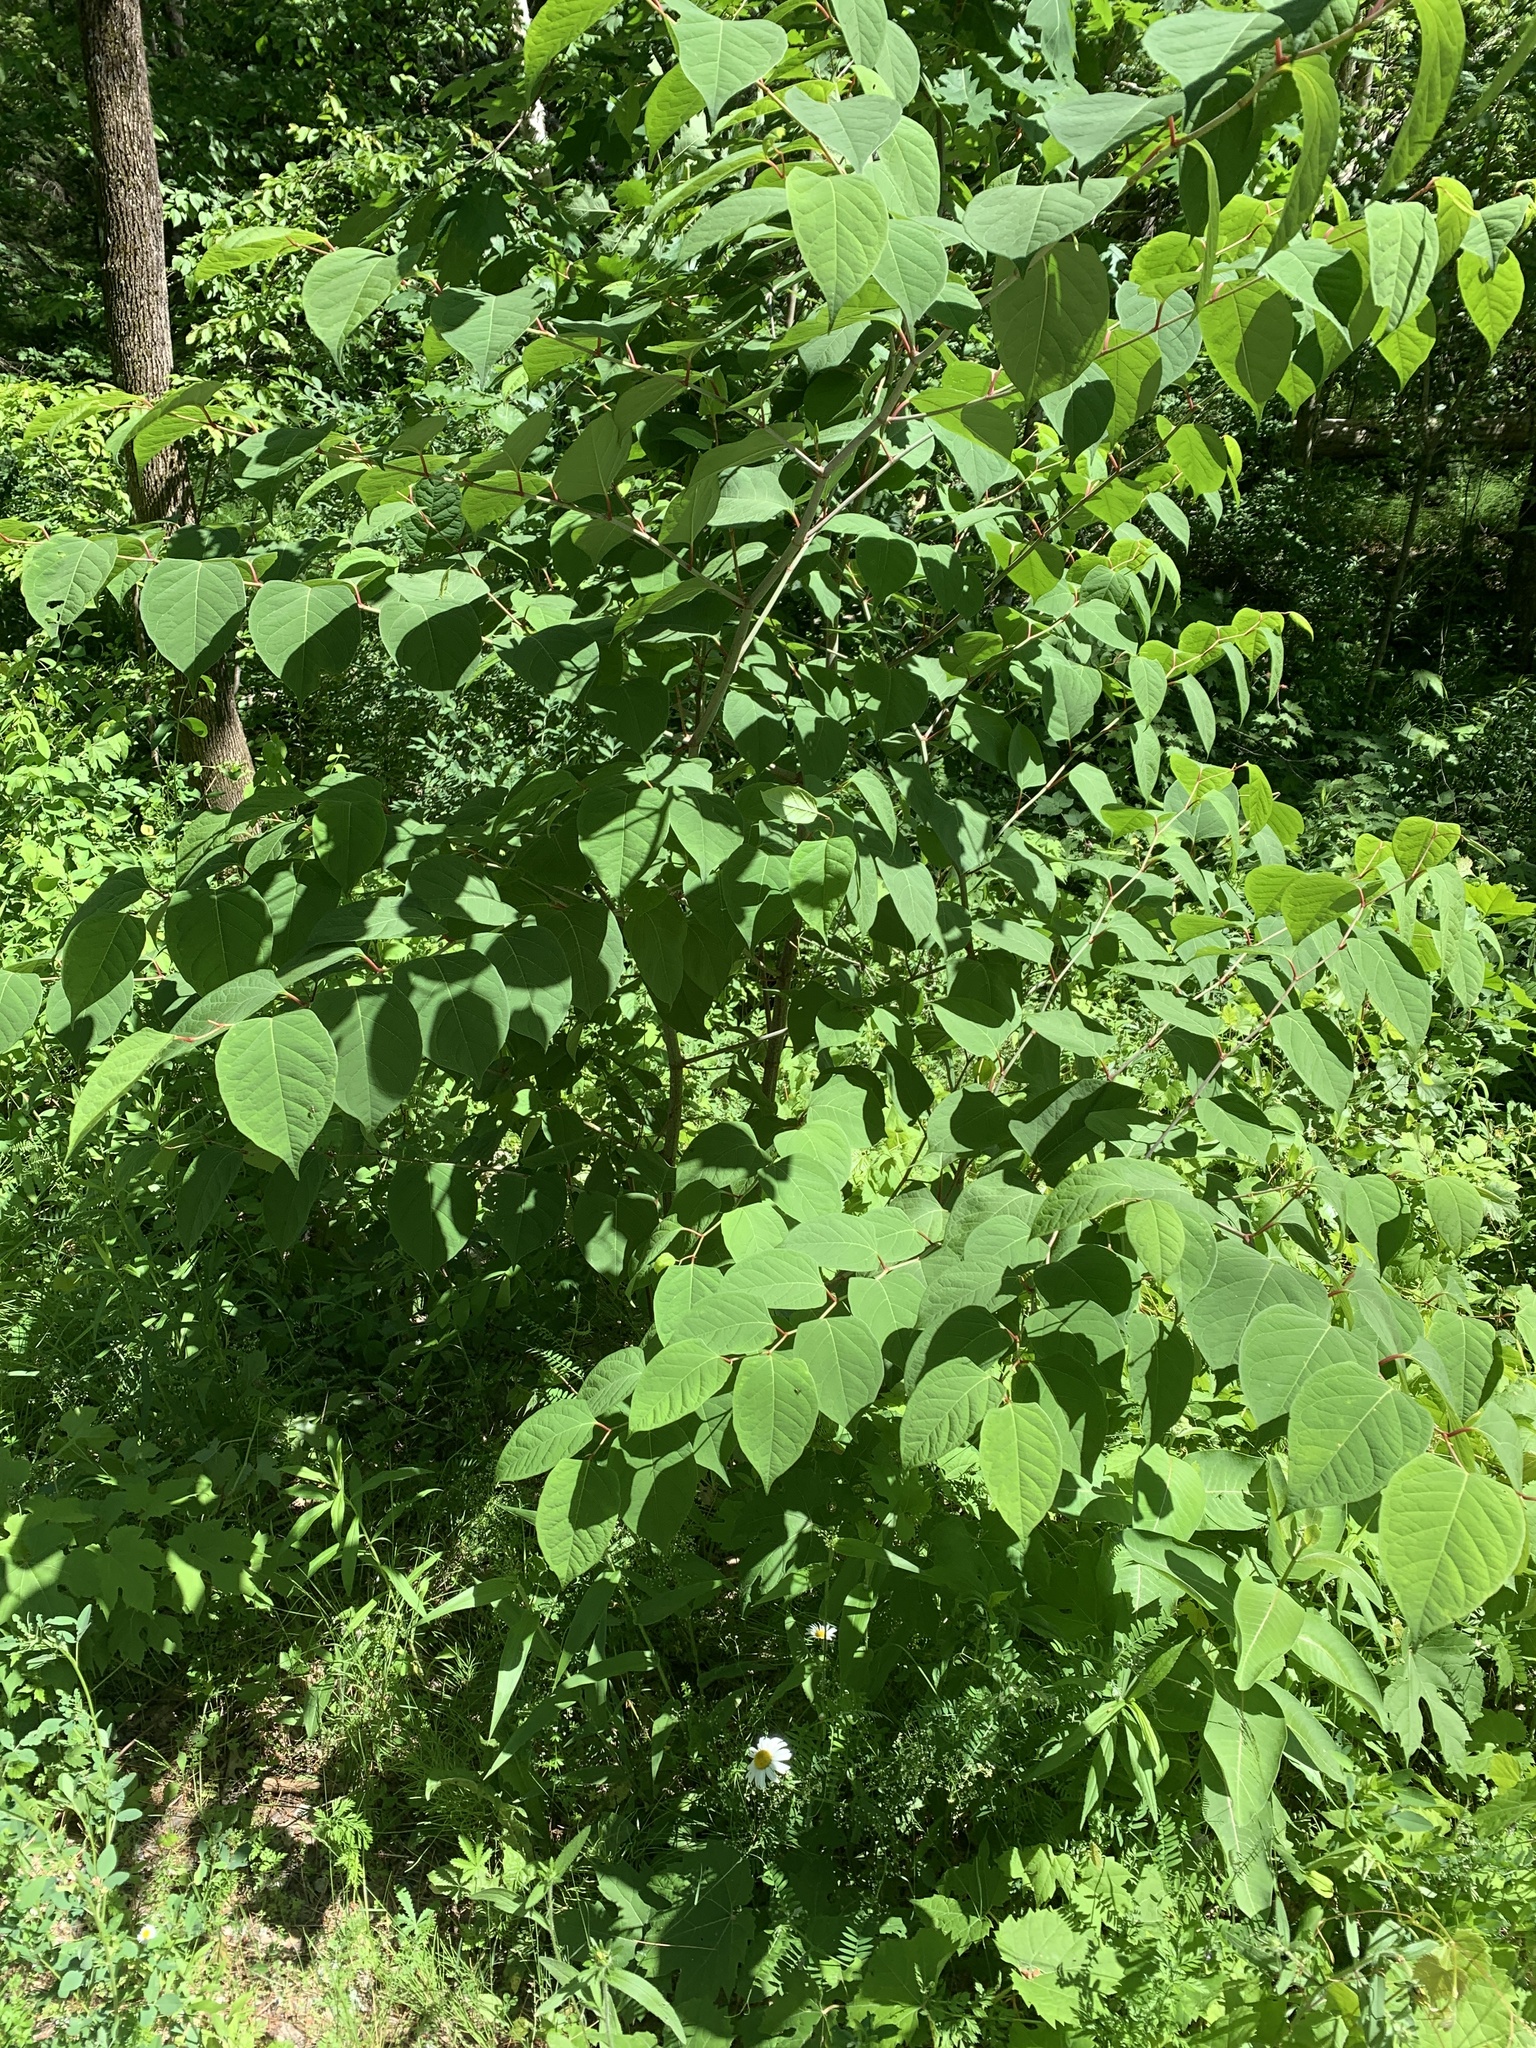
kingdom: Plantae
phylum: Tracheophyta
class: Magnoliopsida
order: Caryophyllales
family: Polygonaceae
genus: Reynoutria
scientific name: Reynoutria japonica
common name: Japanese knotweed
